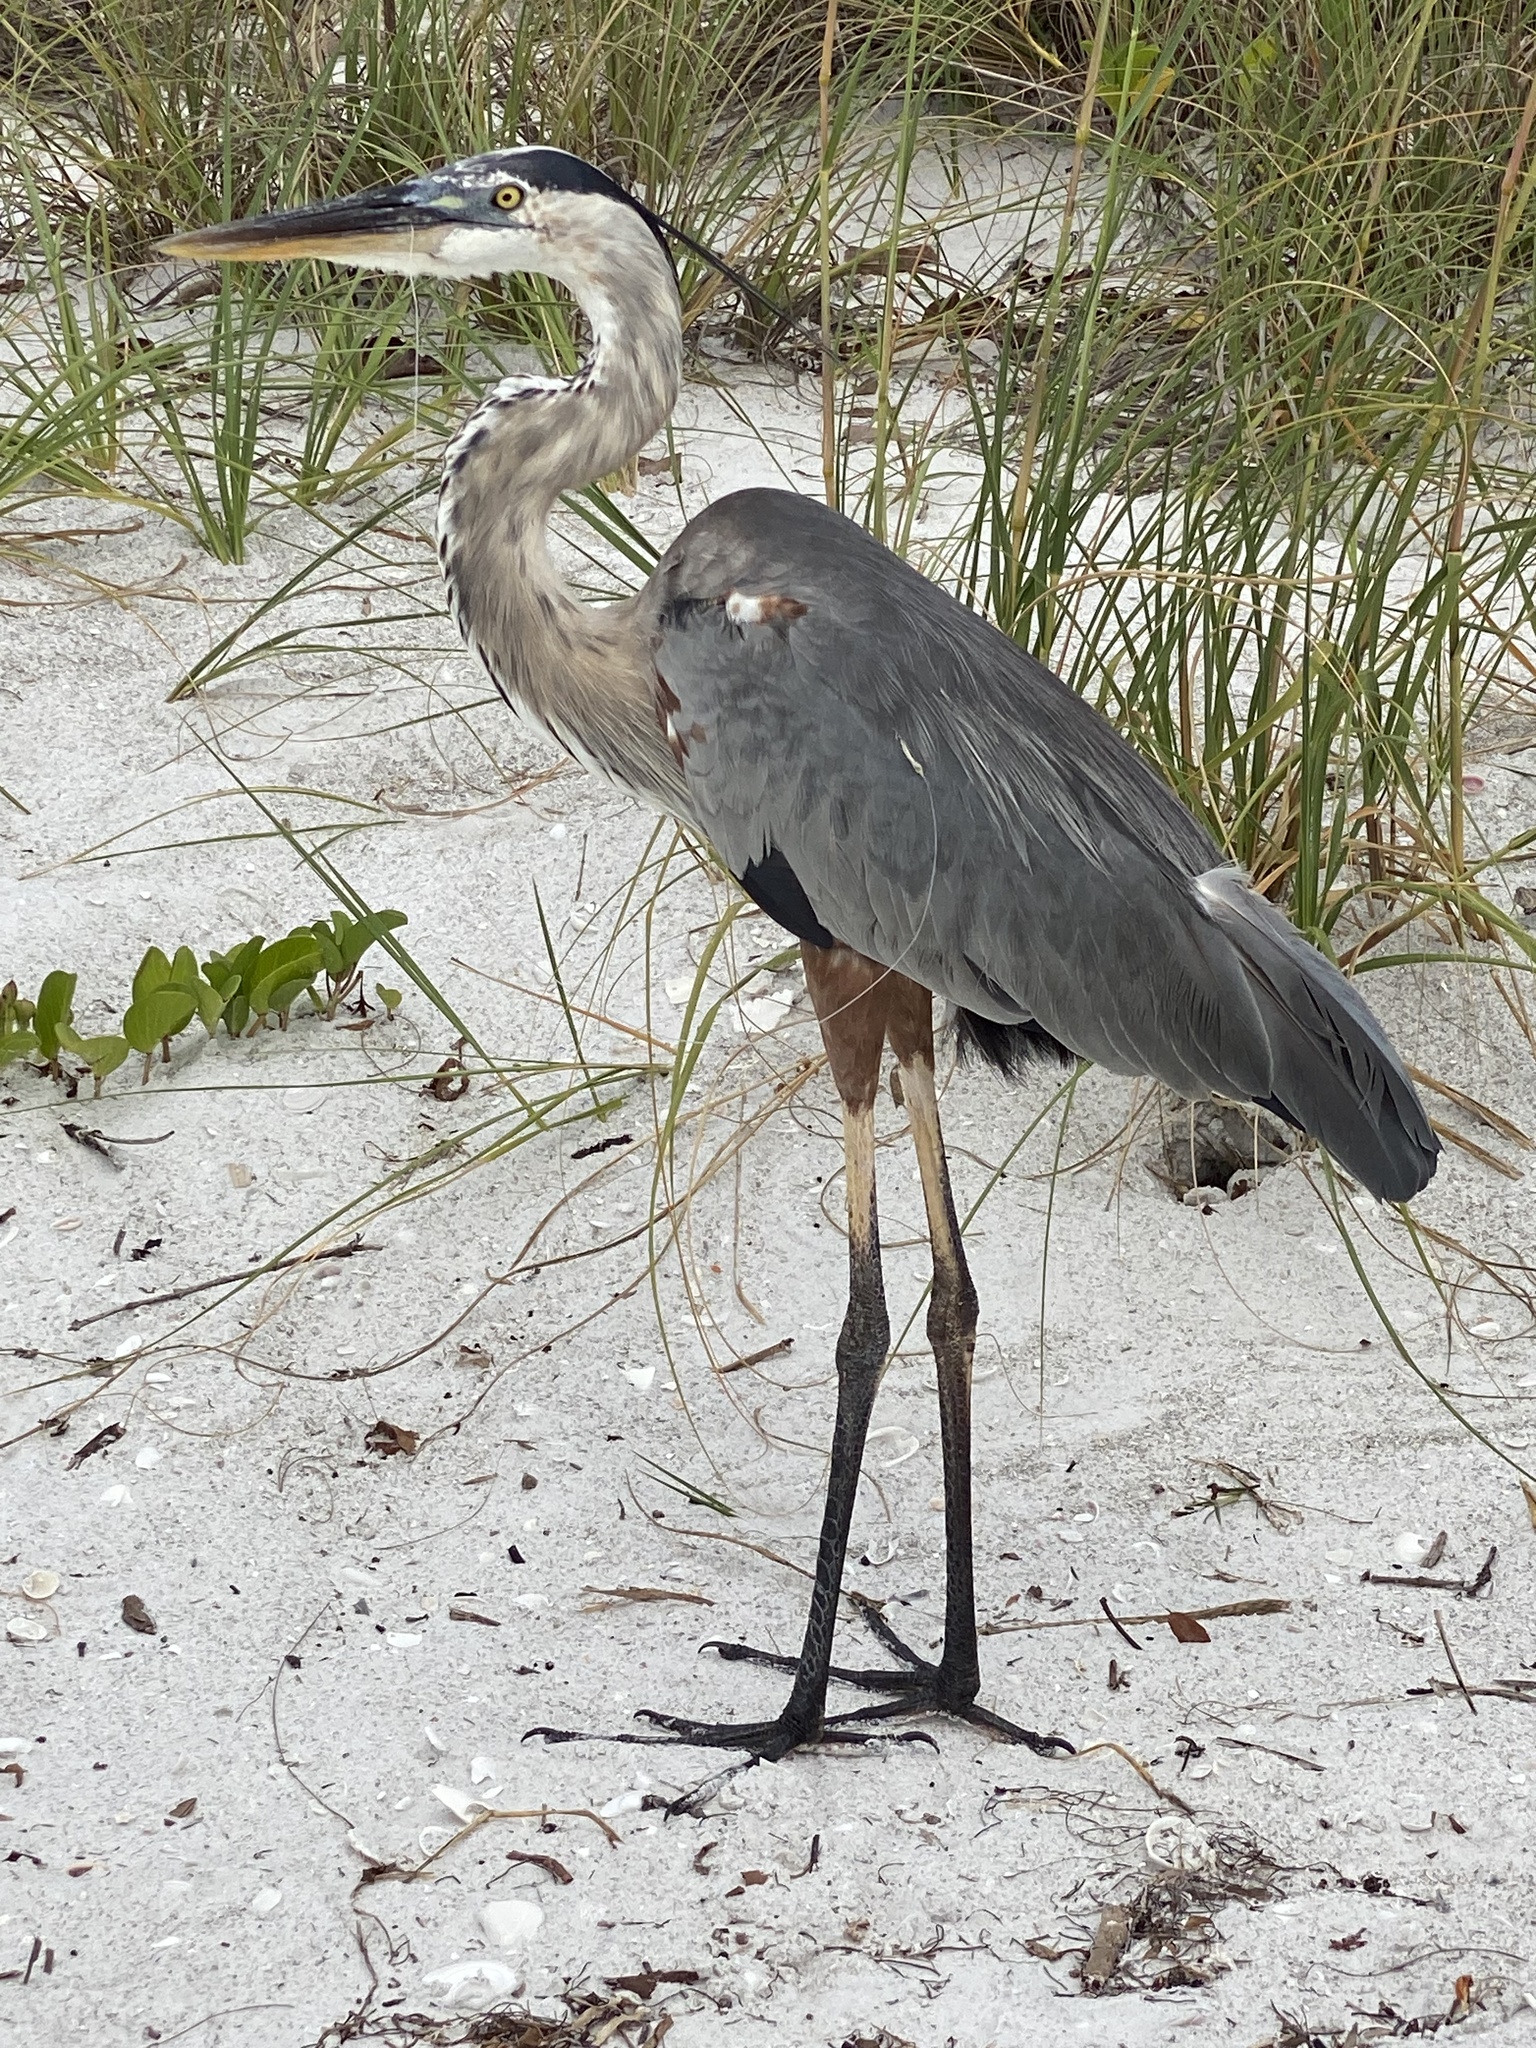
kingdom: Animalia
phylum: Chordata
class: Aves
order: Pelecaniformes
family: Ardeidae
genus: Ardea
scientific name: Ardea herodias
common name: Great blue heron
